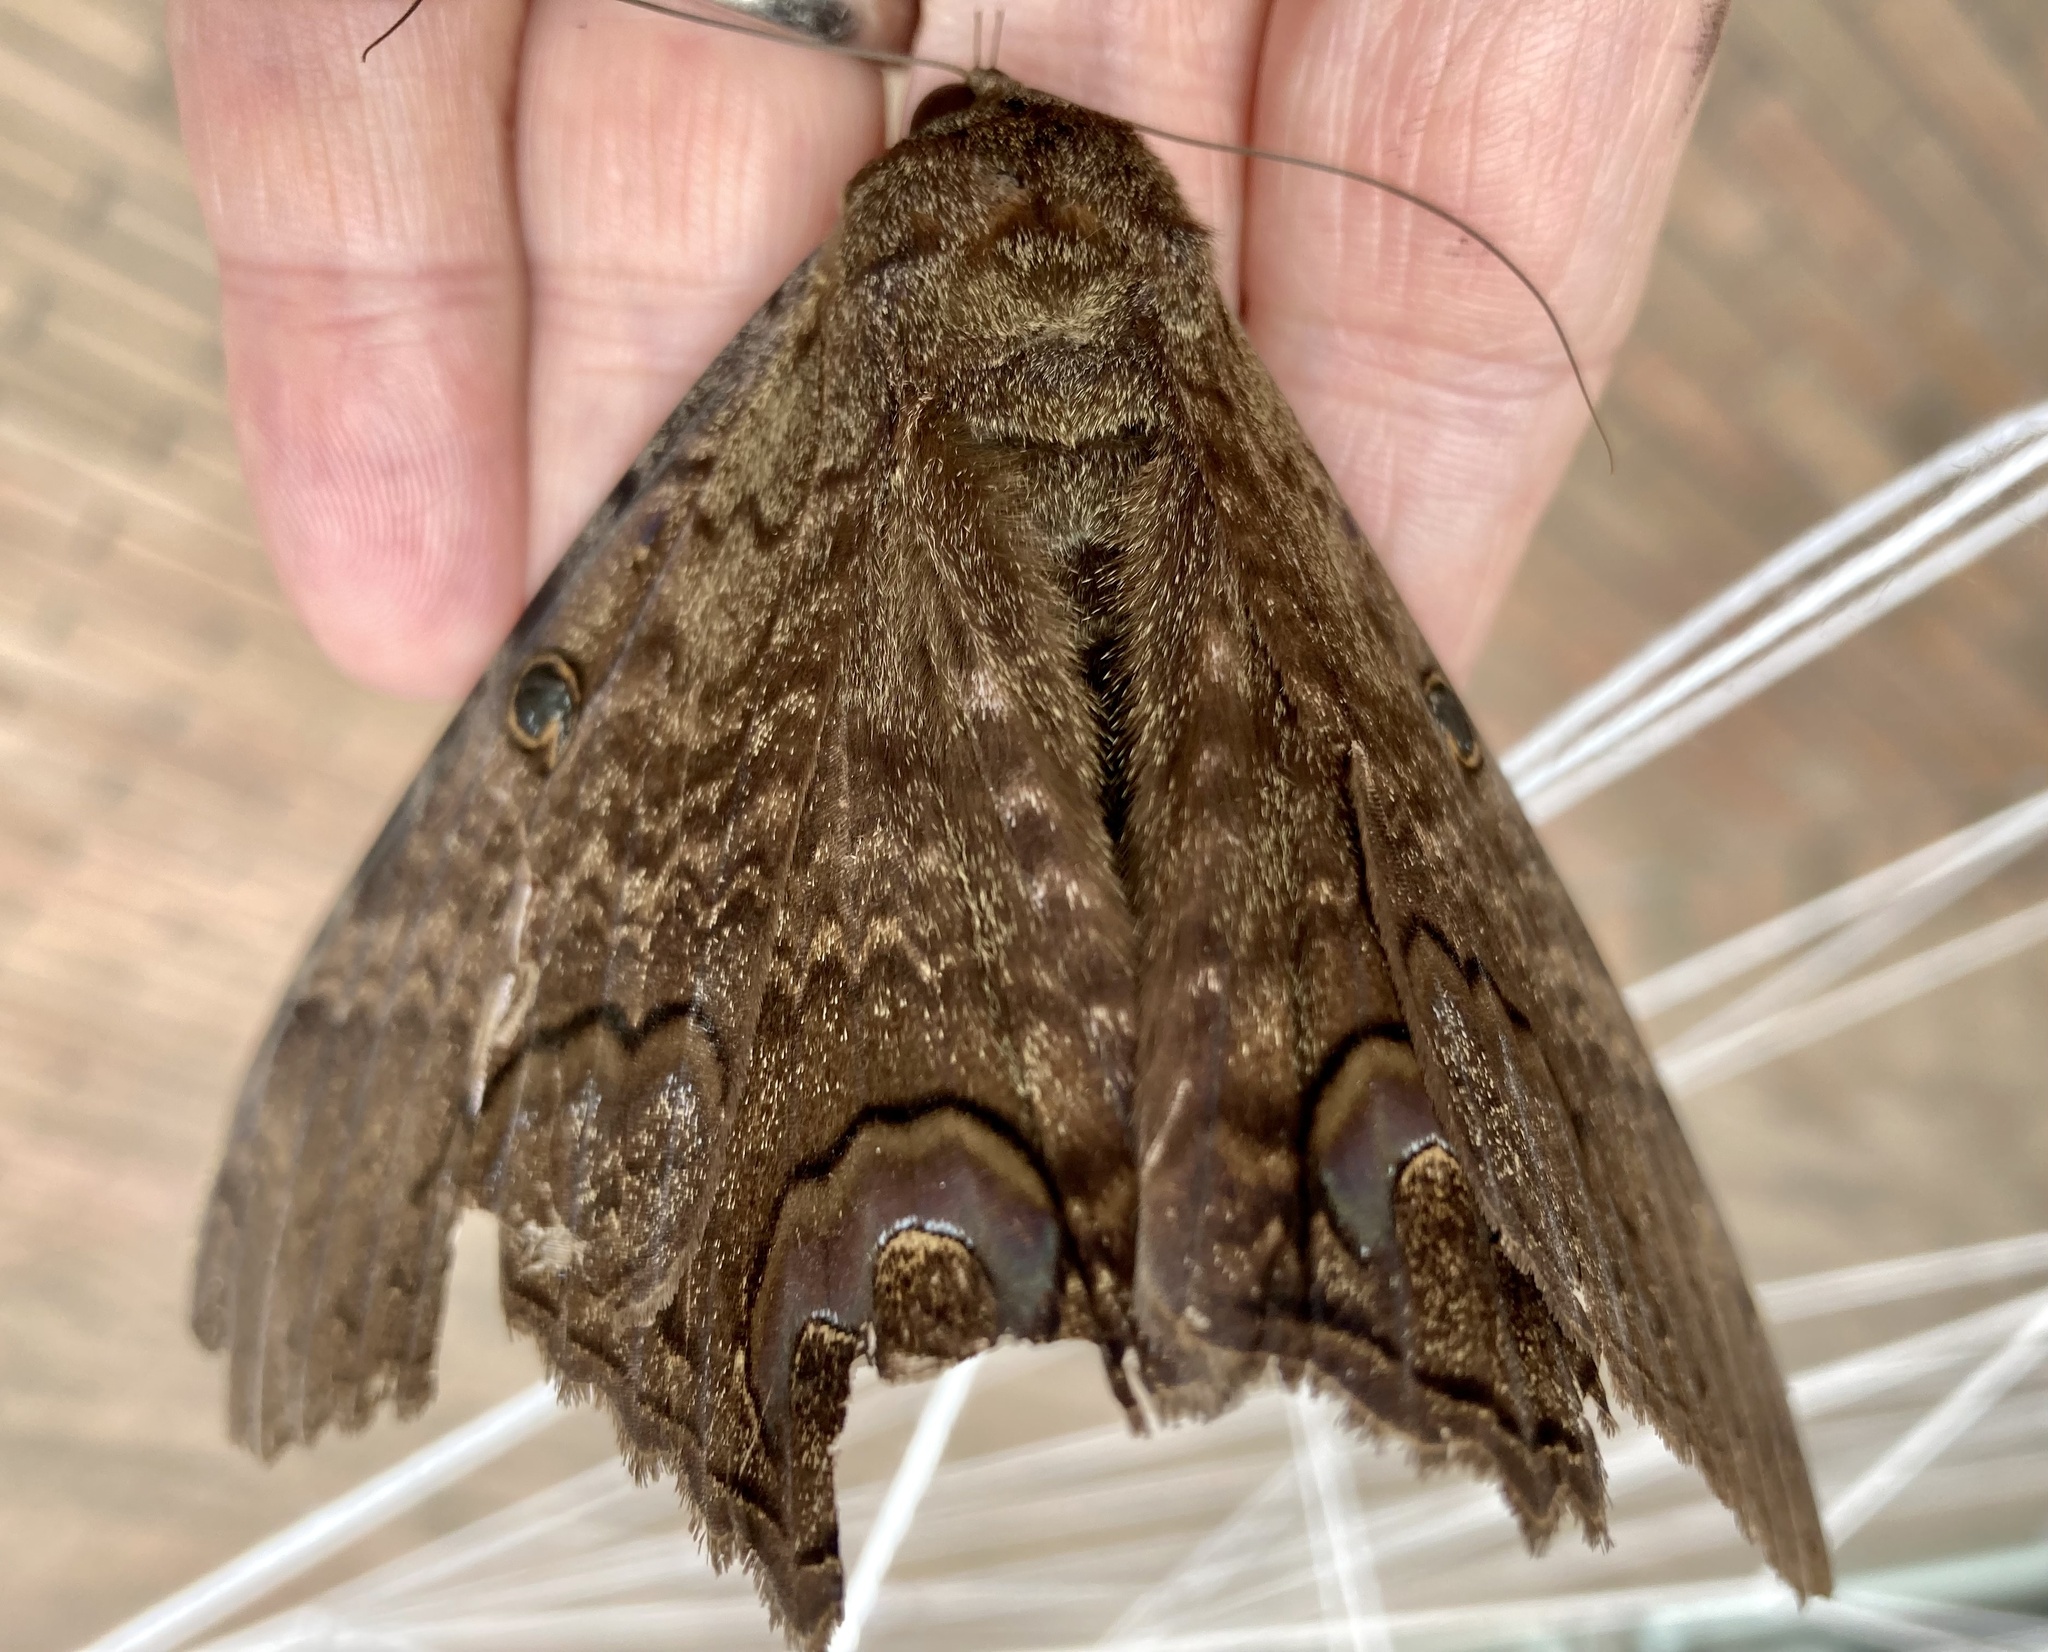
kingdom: Animalia
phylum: Arthropoda
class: Insecta
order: Lepidoptera
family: Erebidae
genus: Ascalapha
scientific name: Ascalapha odorata
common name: Black witch
